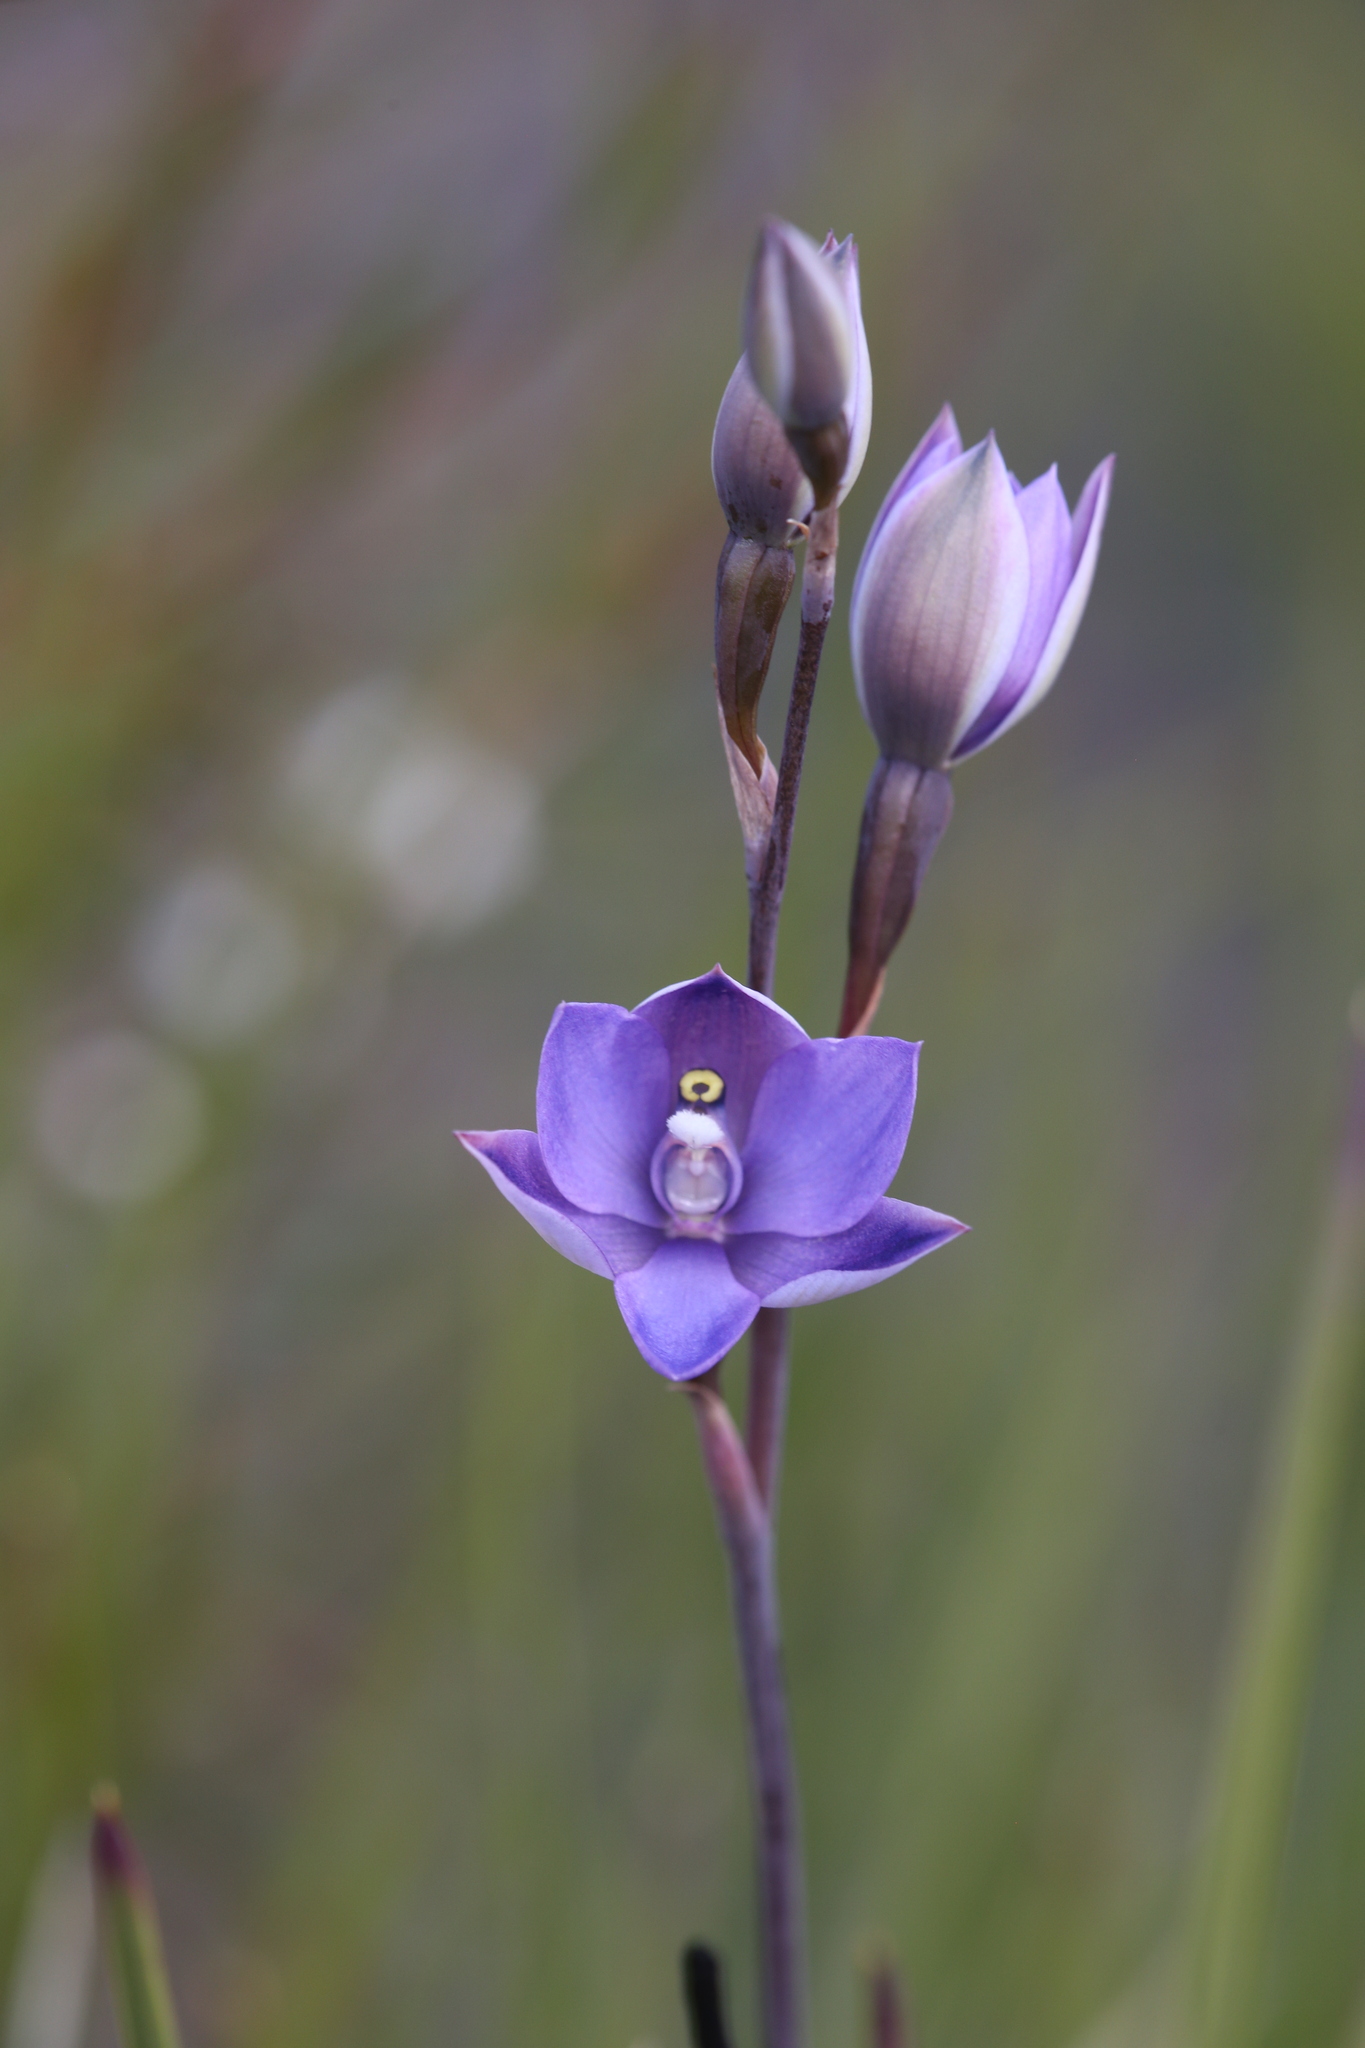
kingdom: Plantae
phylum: Tracheophyta
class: Liliopsida
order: Asparagales
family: Orchidaceae
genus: Thelymitra
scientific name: Thelymitra graminea
